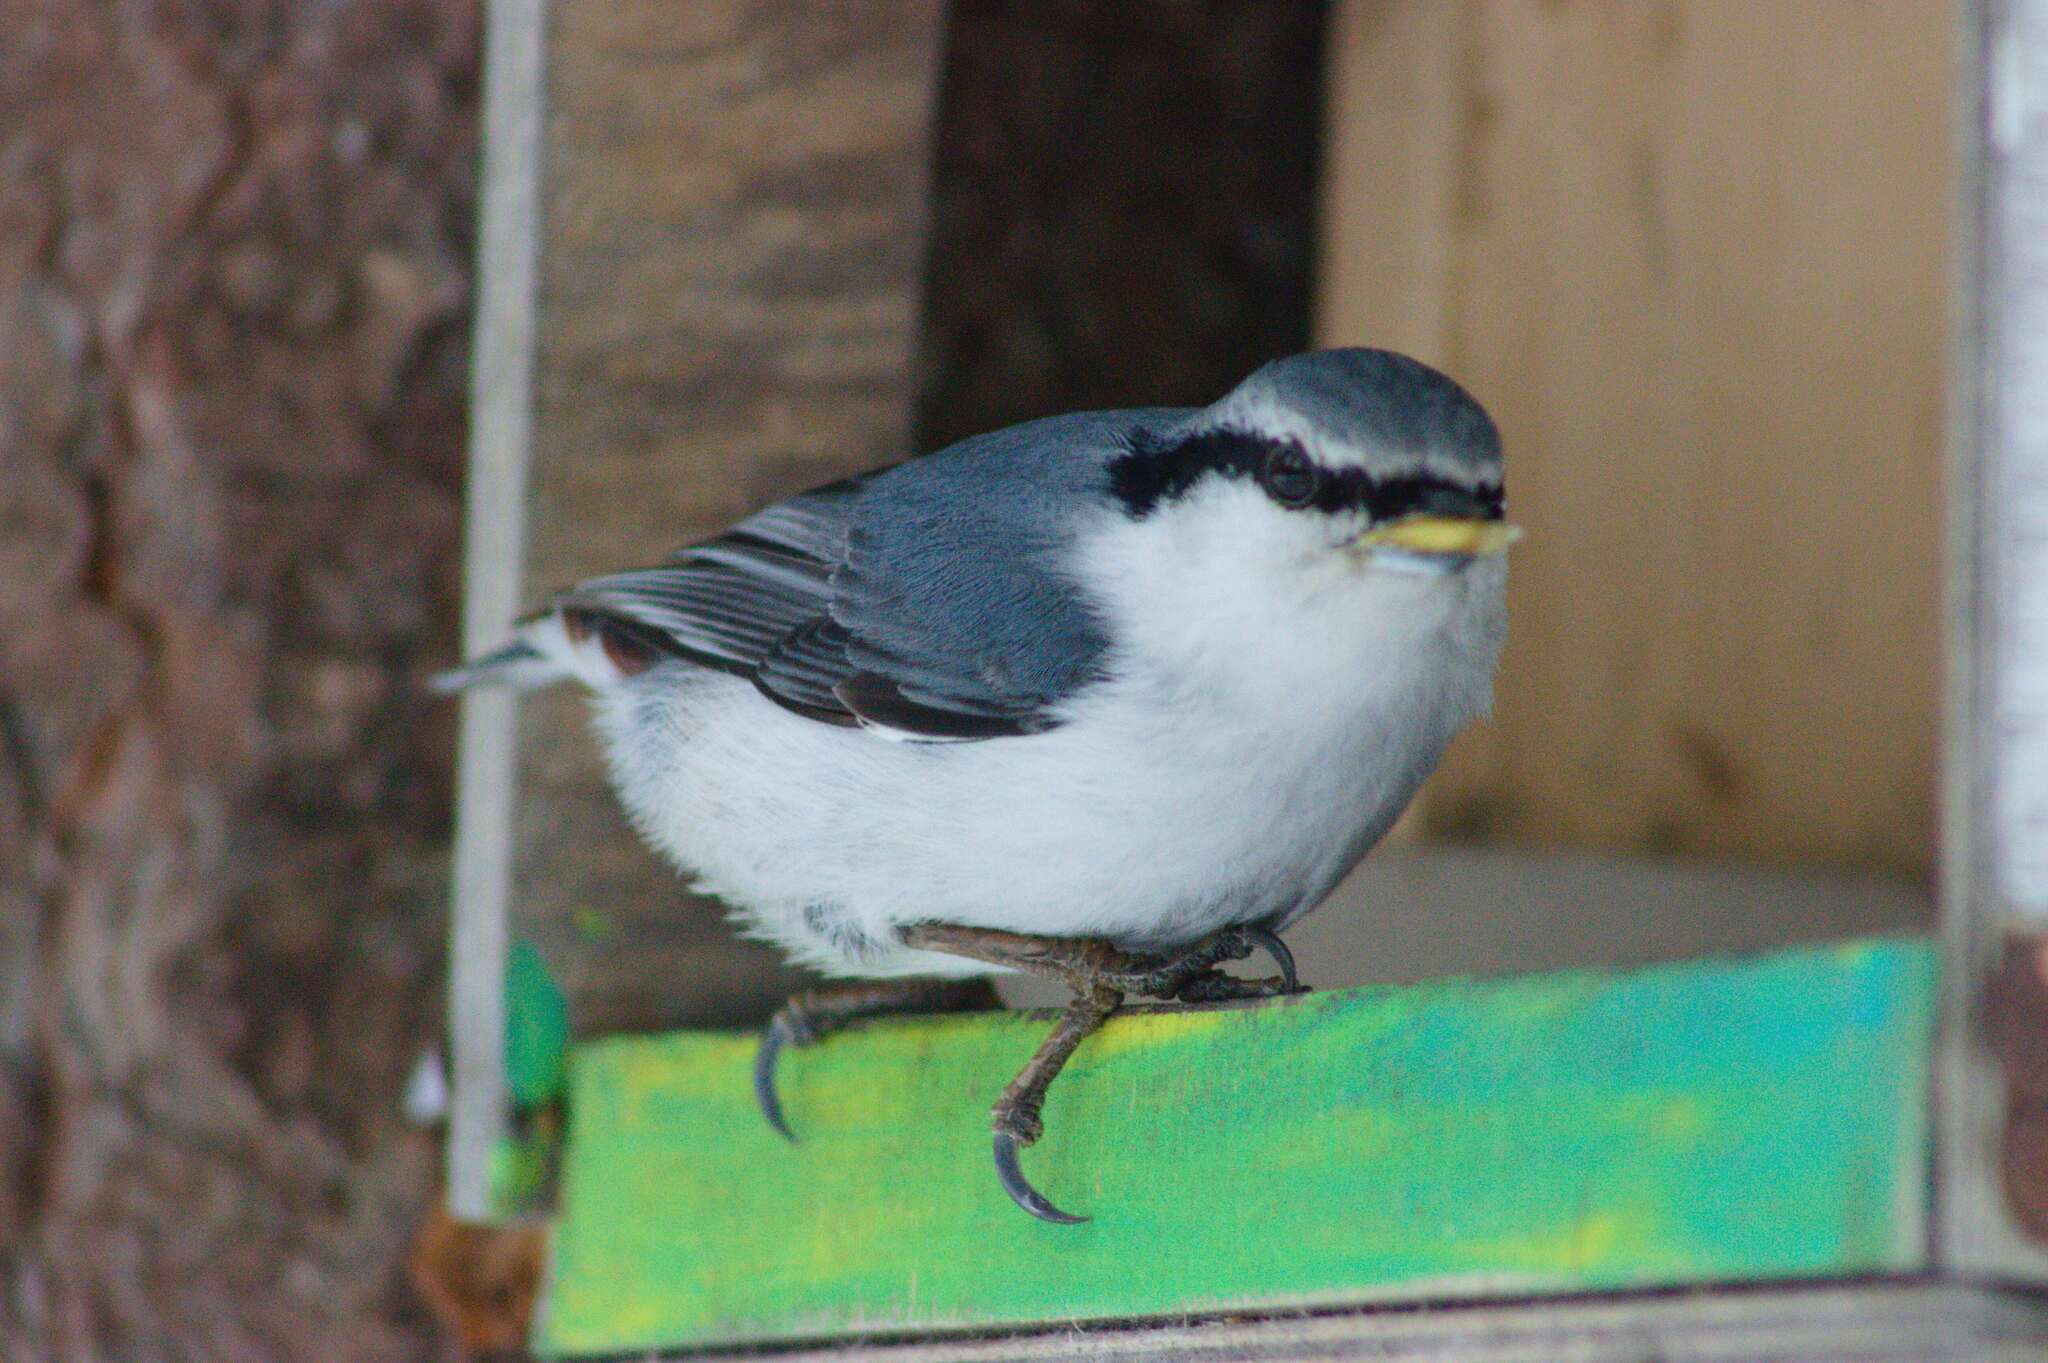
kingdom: Animalia
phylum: Chordata
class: Aves
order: Passeriformes
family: Sittidae
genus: Sitta
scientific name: Sitta europaea
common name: Eurasian nuthatch
